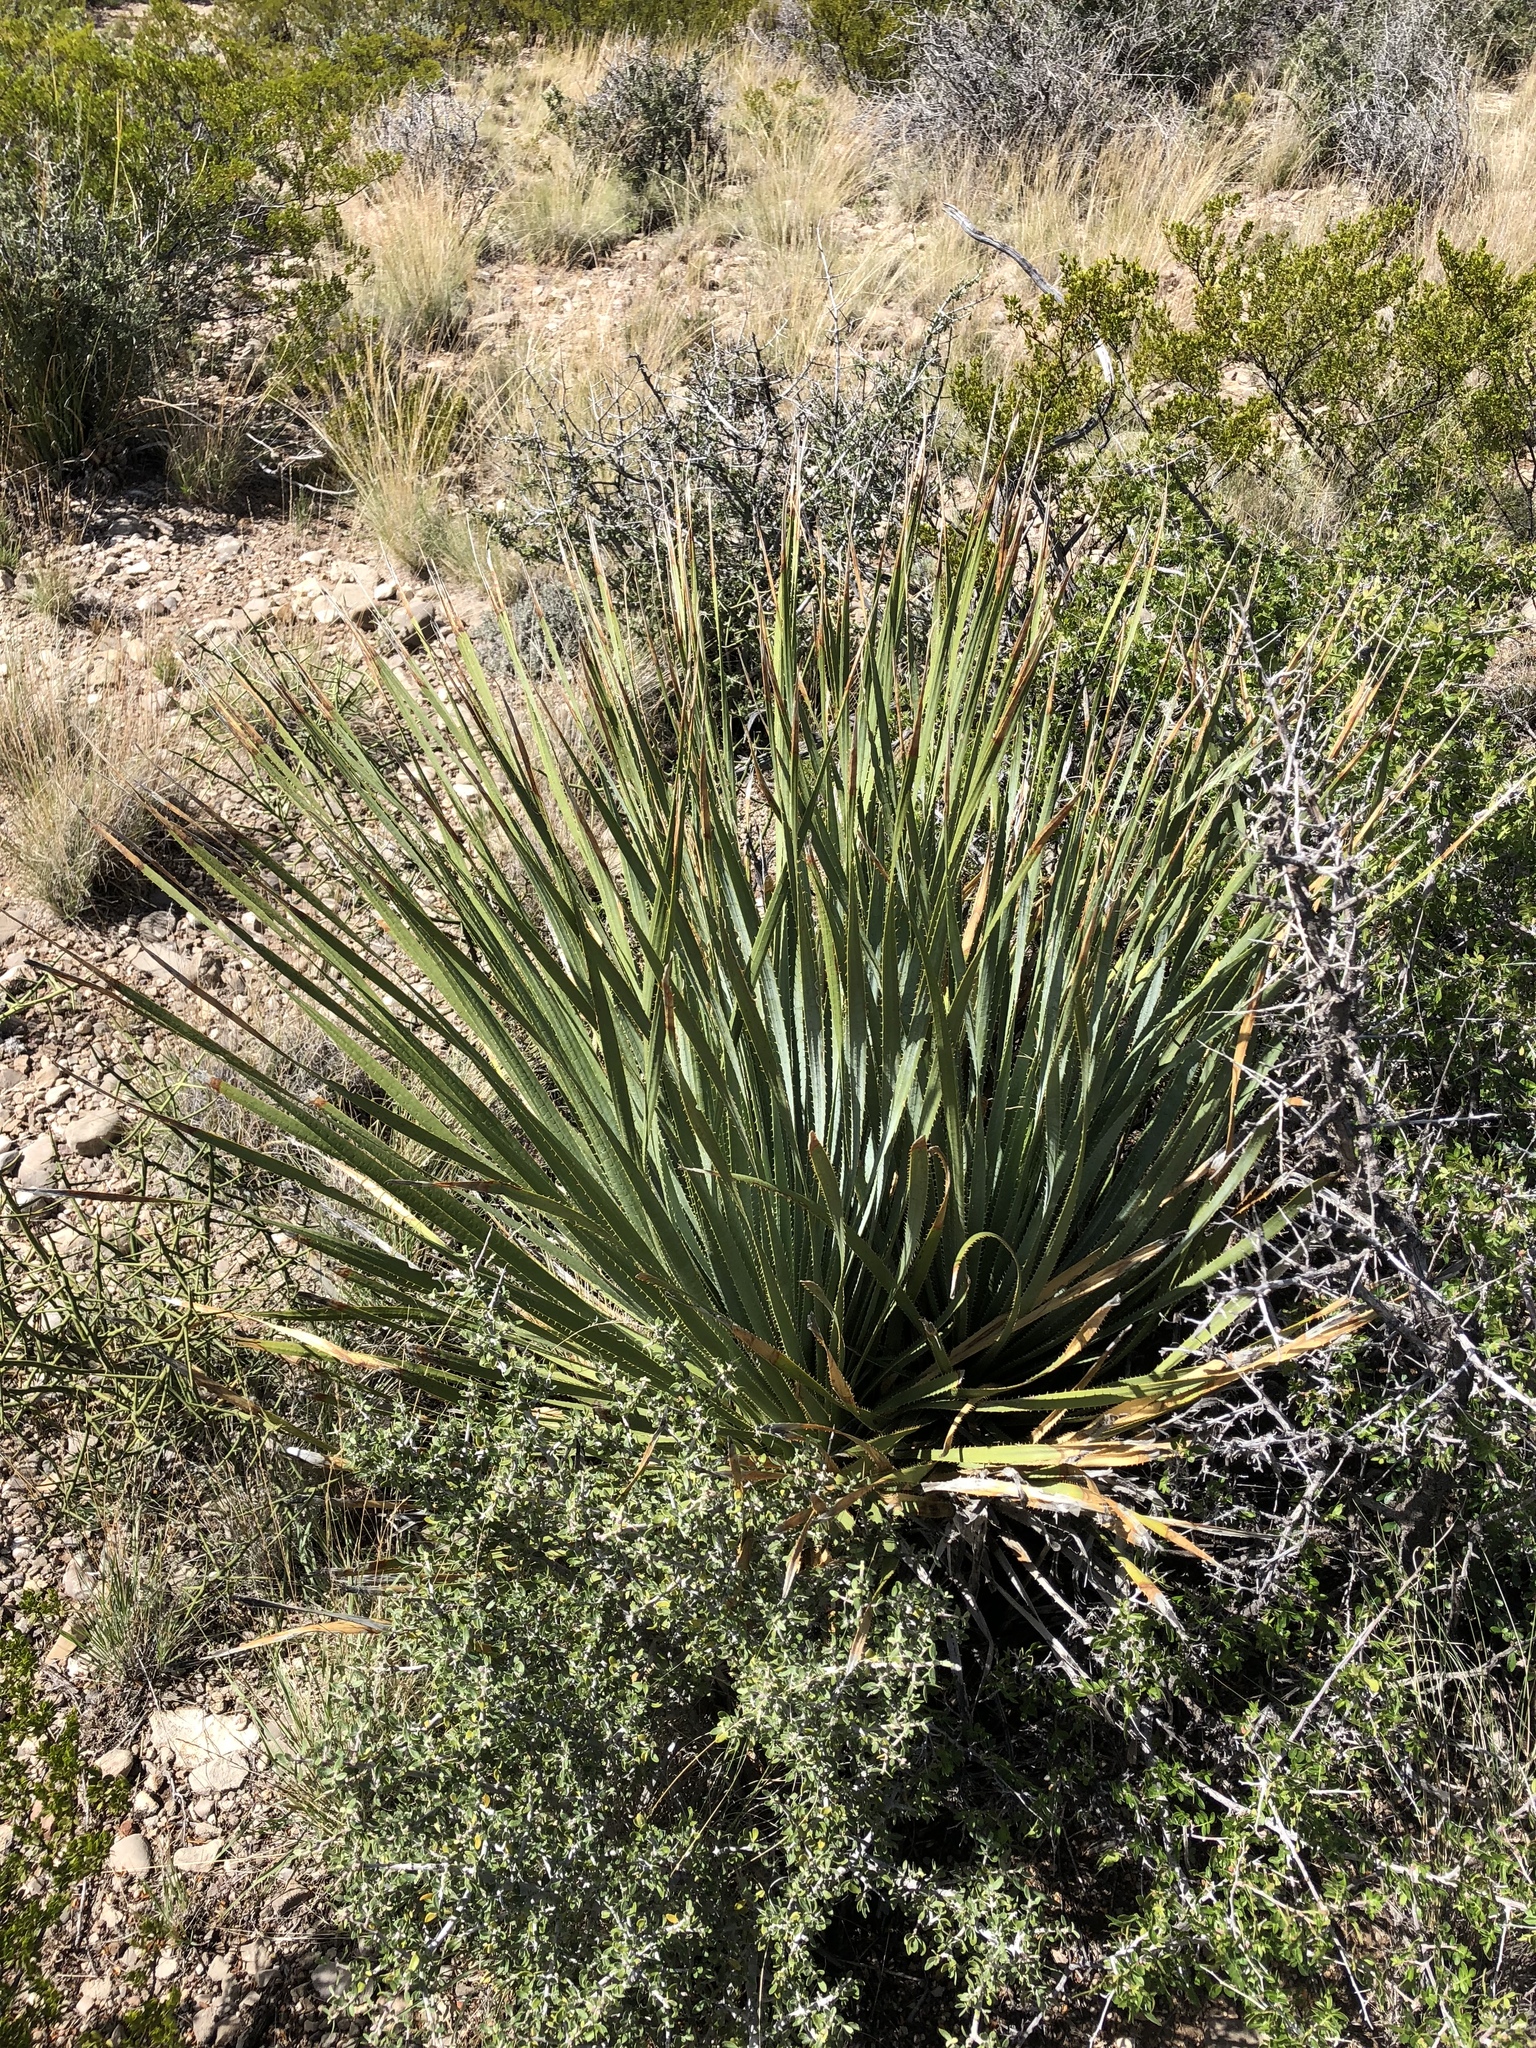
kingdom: Plantae
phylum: Tracheophyta
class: Liliopsida
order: Asparagales
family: Asparagaceae
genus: Dasylirion
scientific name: Dasylirion wheeleri
